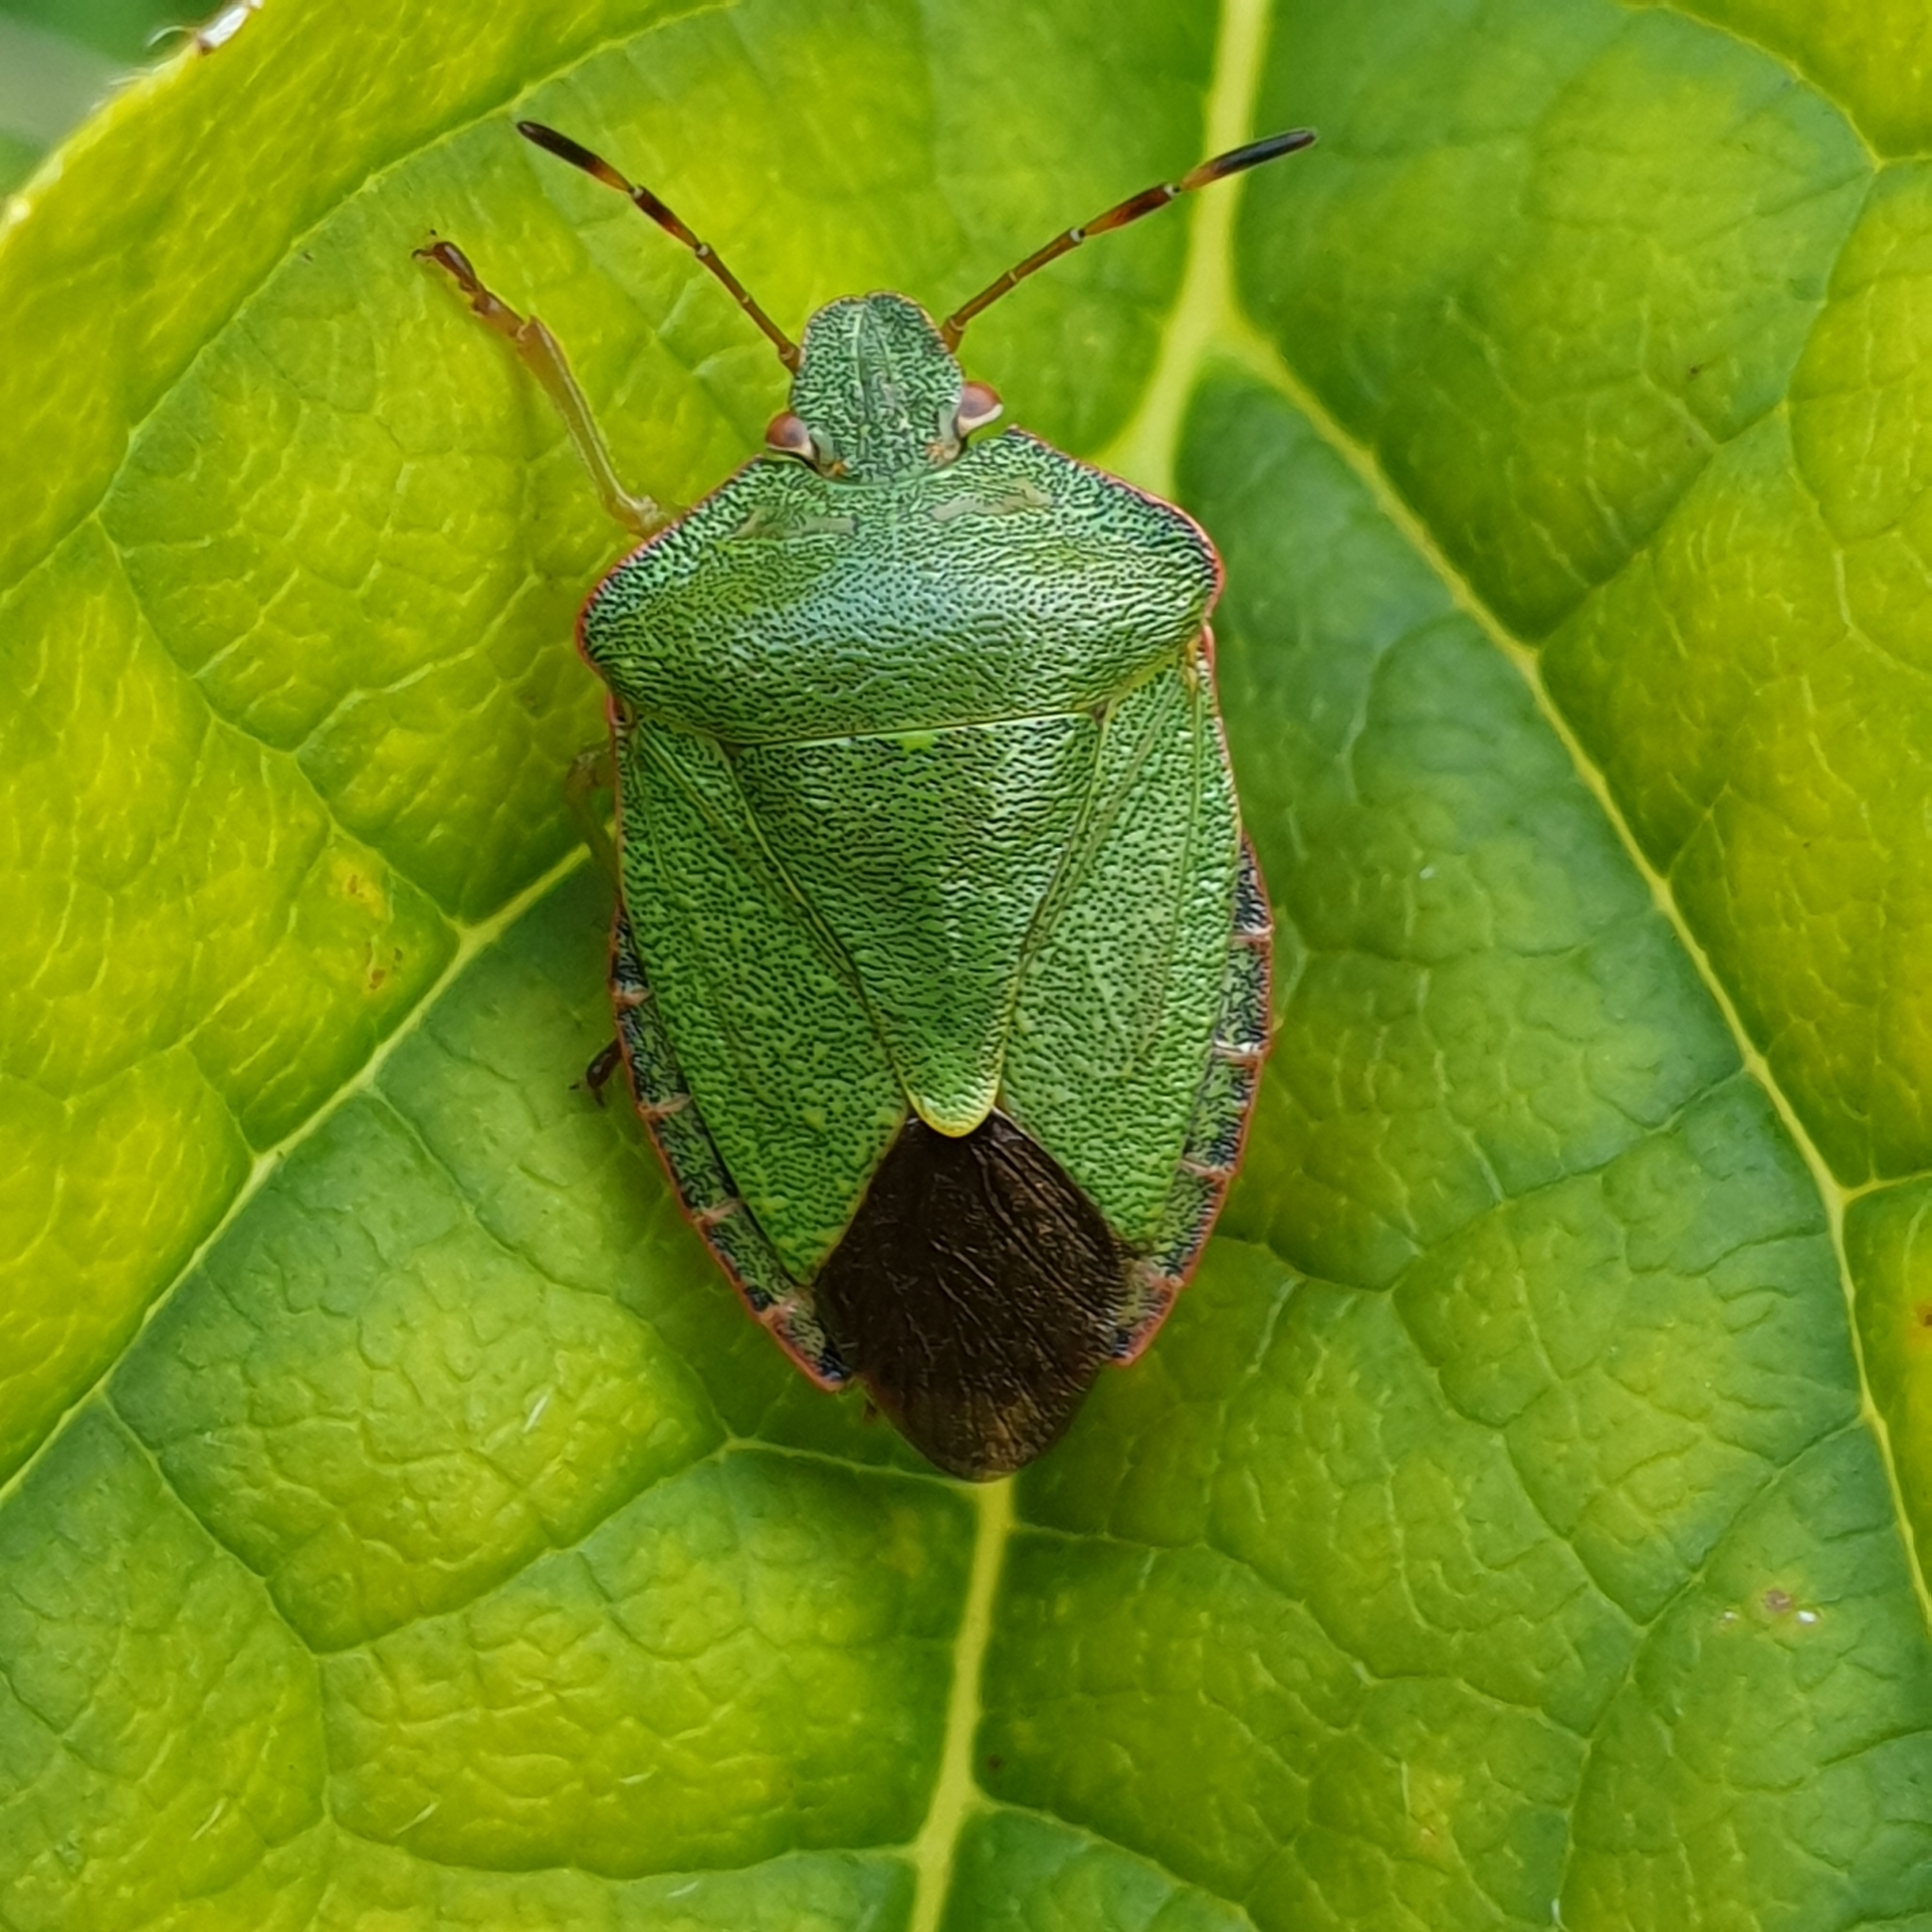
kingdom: Animalia
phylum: Arthropoda
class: Insecta
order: Hemiptera
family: Pentatomidae
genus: Palomena
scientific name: Palomena prasina
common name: Green shieldbug
